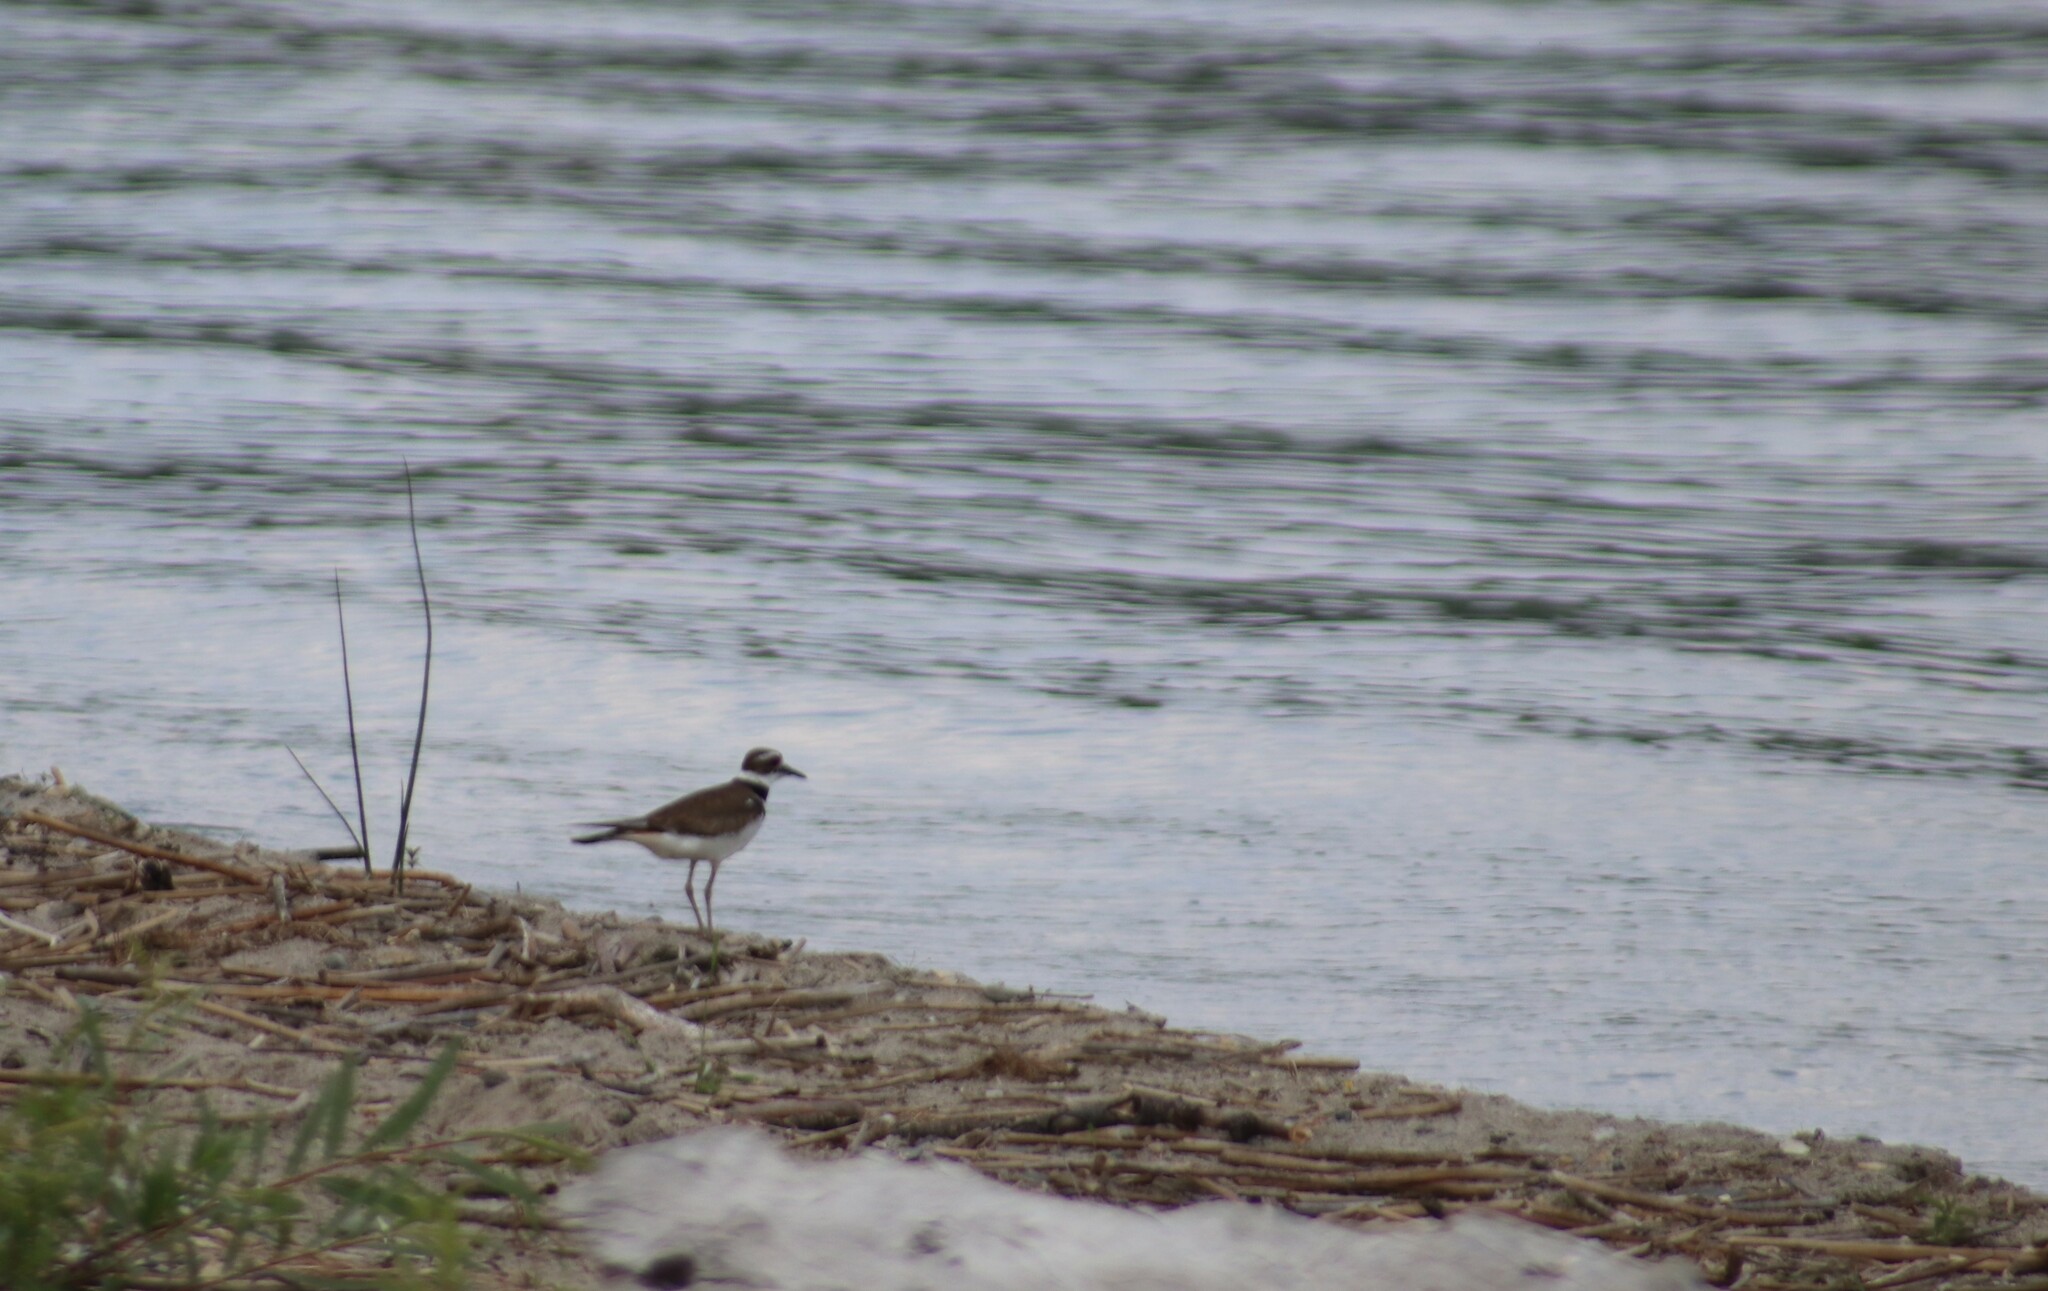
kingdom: Animalia
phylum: Chordata
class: Aves
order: Charadriiformes
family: Charadriidae
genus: Charadrius
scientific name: Charadrius vociferus
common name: Killdeer
